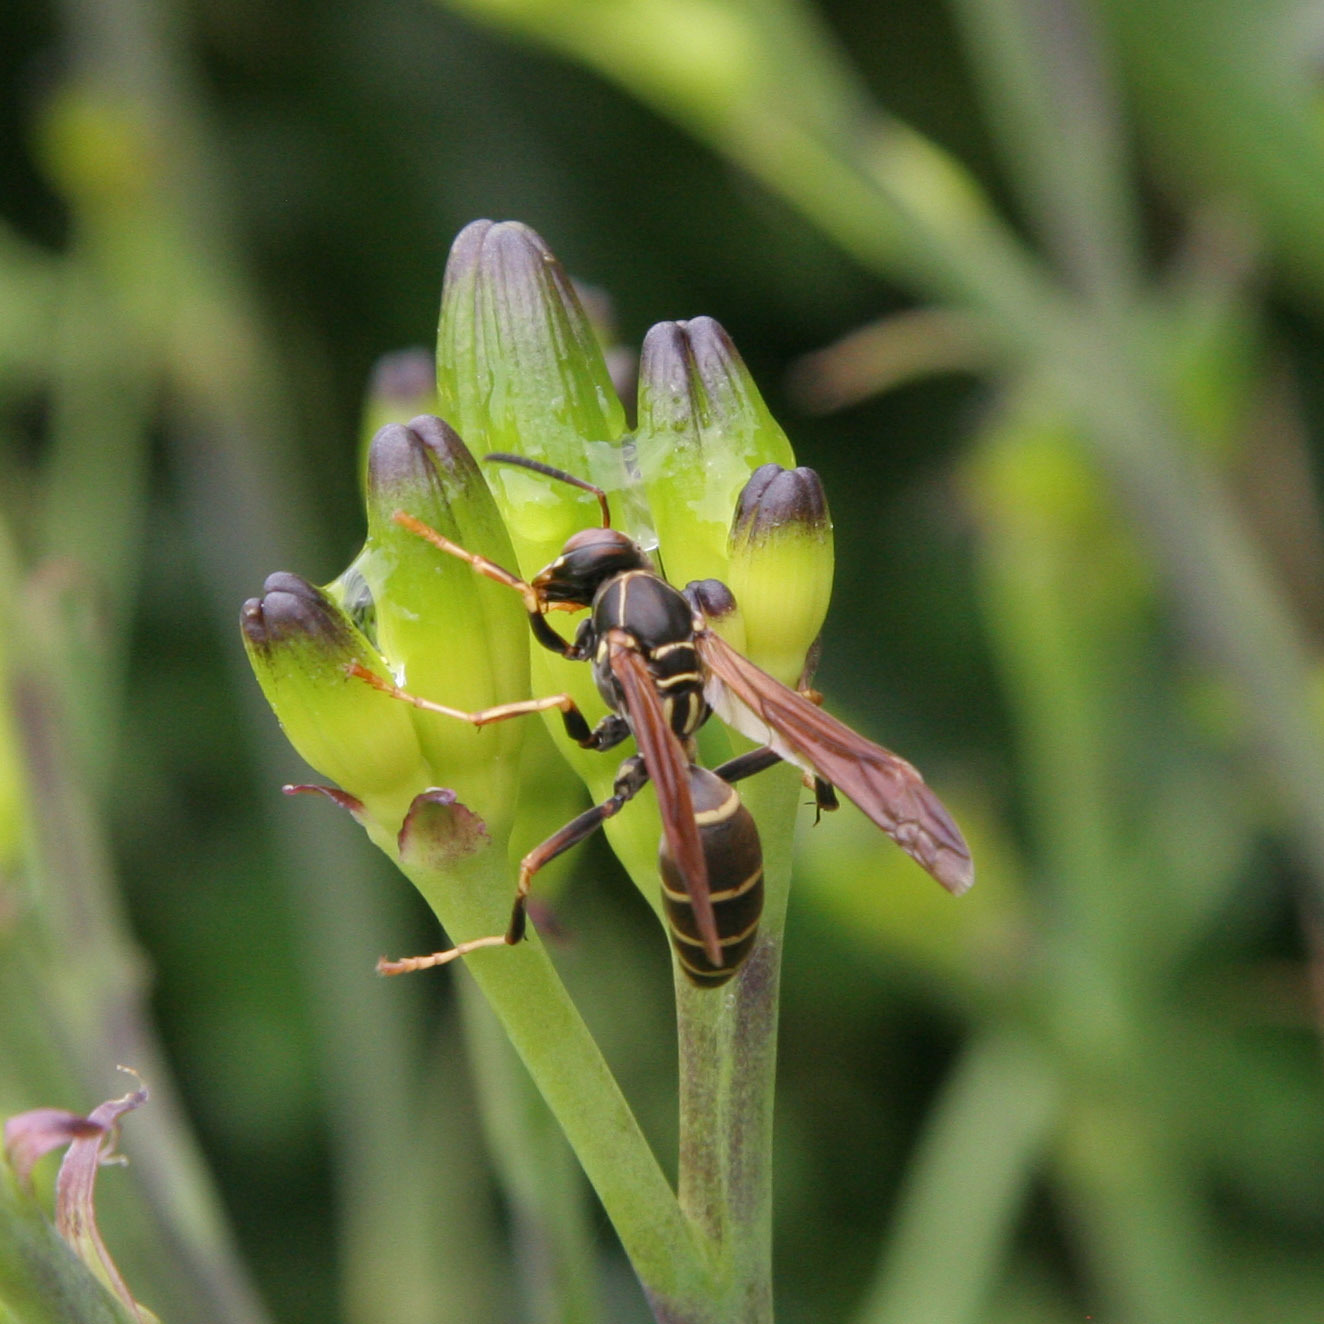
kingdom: Animalia
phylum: Arthropoda
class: Insecta
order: Hymenoptera
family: Eumenidae
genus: Polistes
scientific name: Polistes fuscatus
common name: Dark paper wasp
